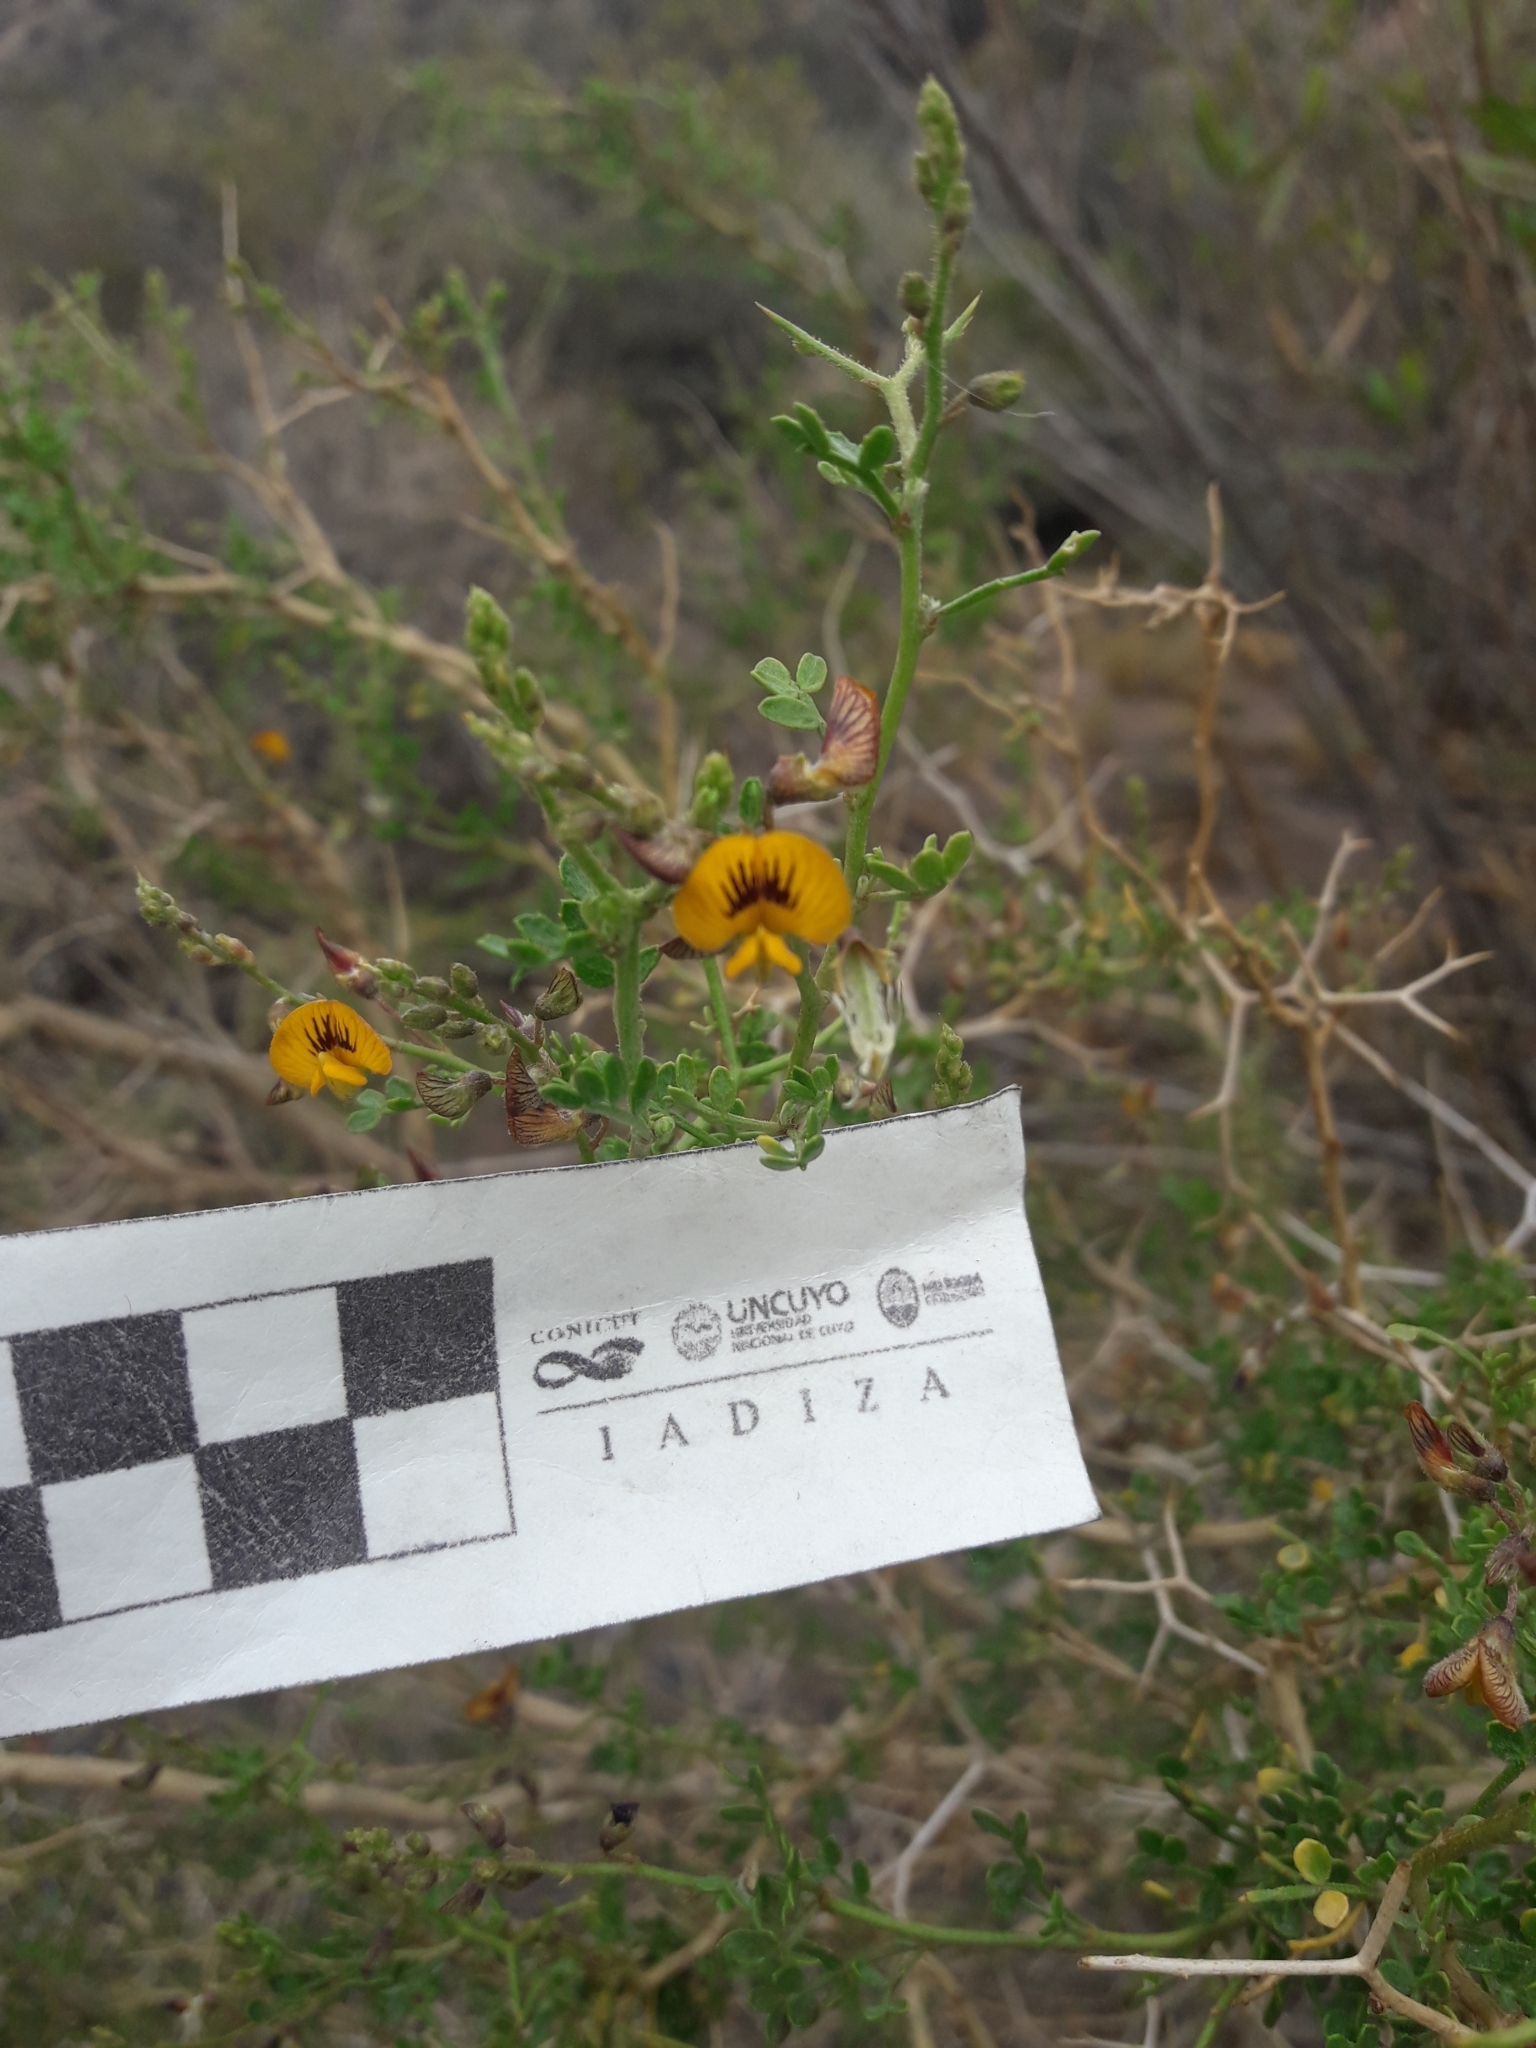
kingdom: Plantae
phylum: Tracheophyta
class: Magnoliopsida
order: Fabales
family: Fabaceae
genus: Adesmia
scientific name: Adesmia trijuga
